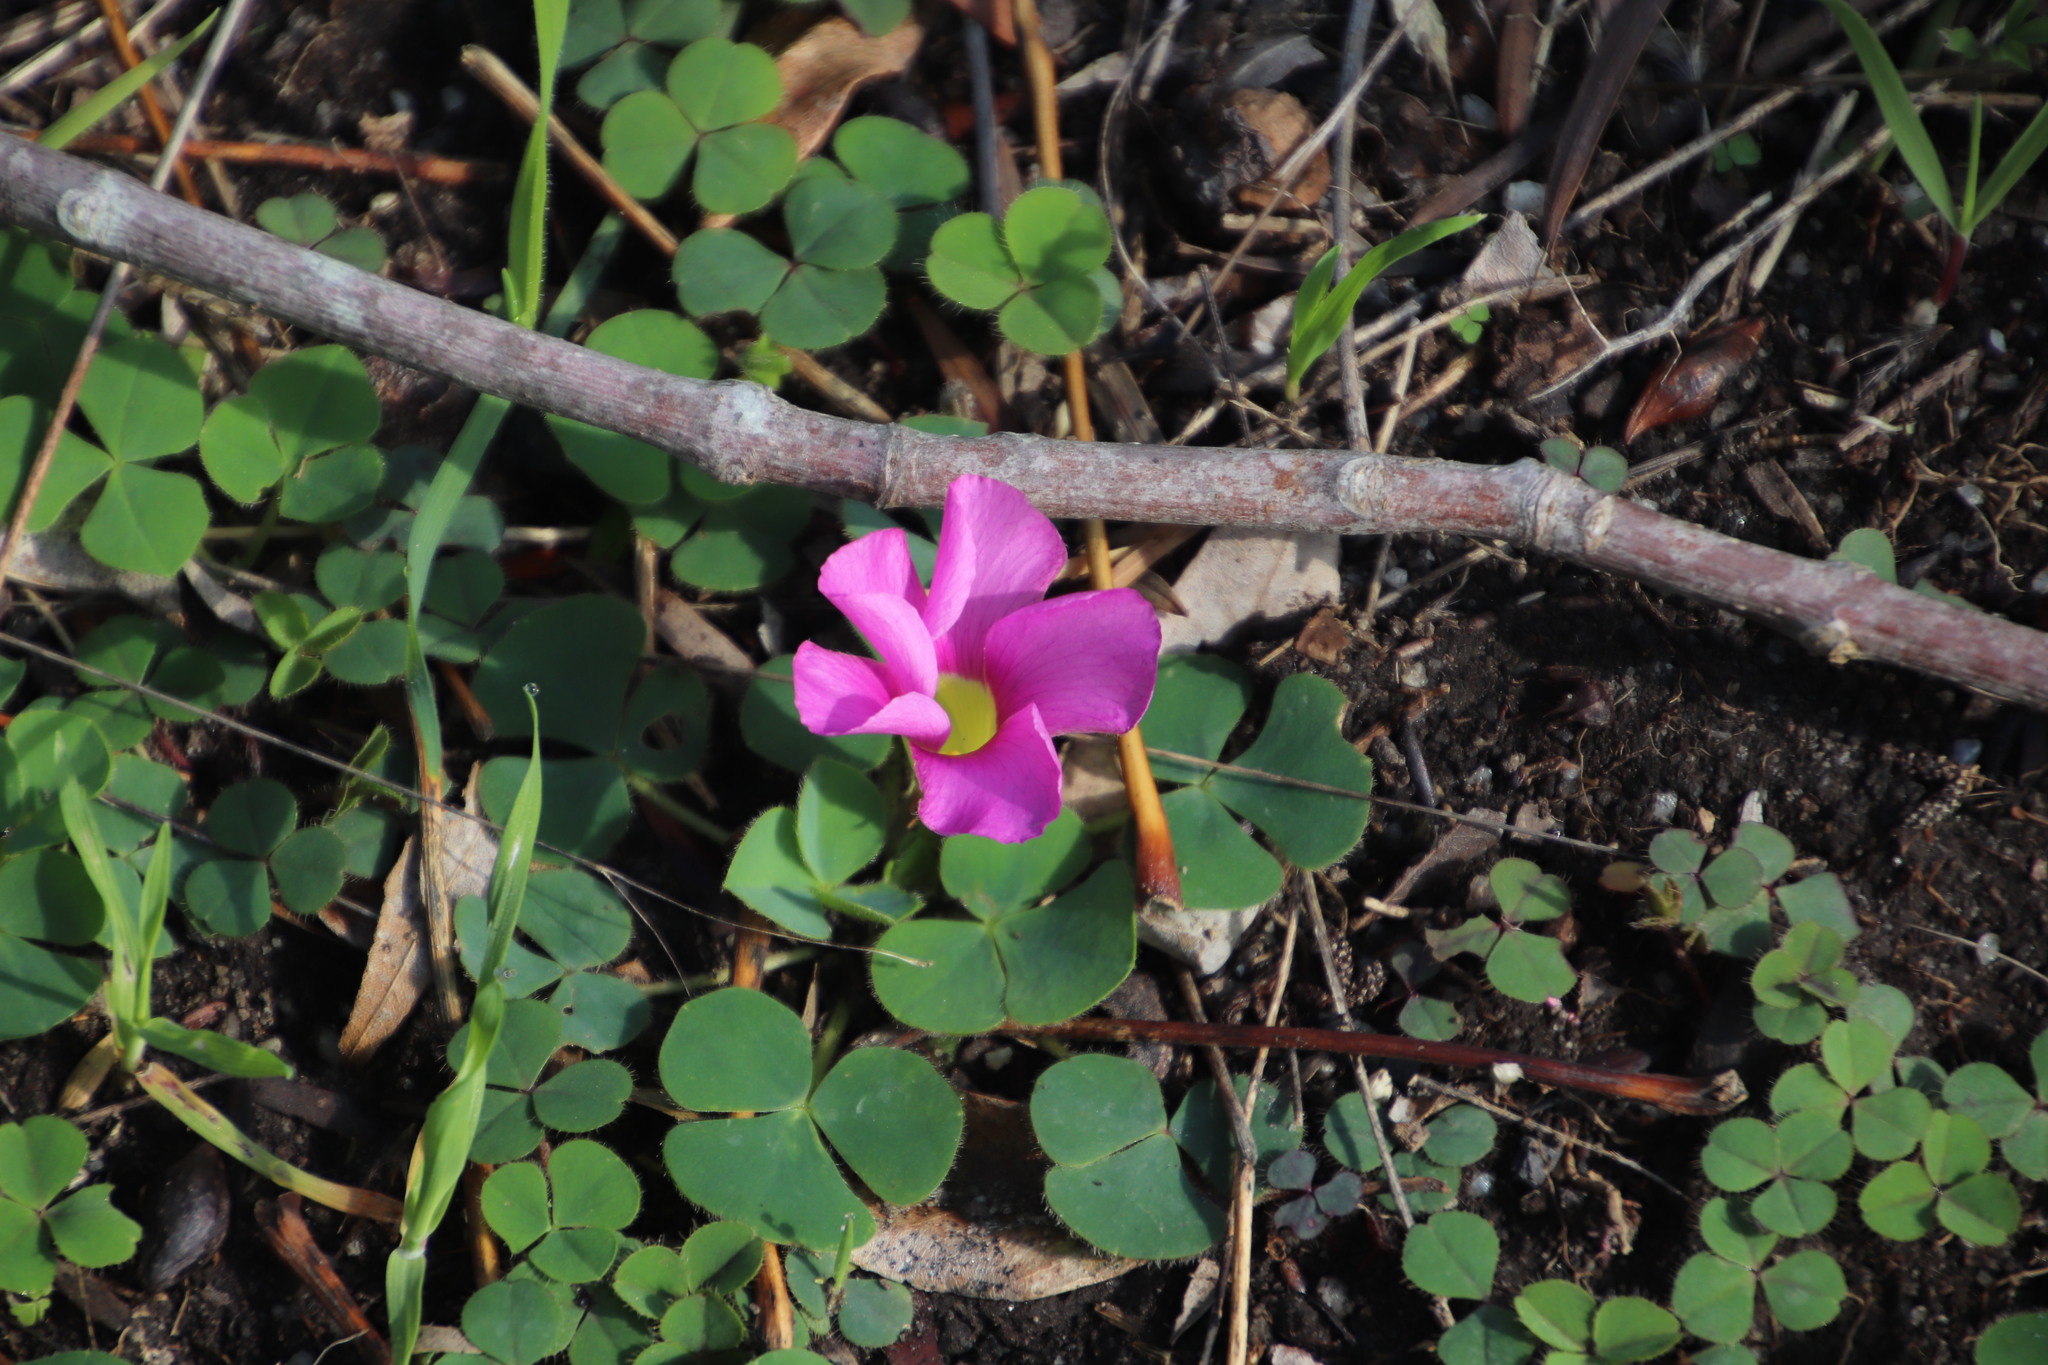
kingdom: Plantae
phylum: Tracheophyta
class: Magnoliopsida
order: Oxalidales
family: Oxalidaceae
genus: Oxalis
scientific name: Oxalis purpurea
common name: Purple woodsorrel
